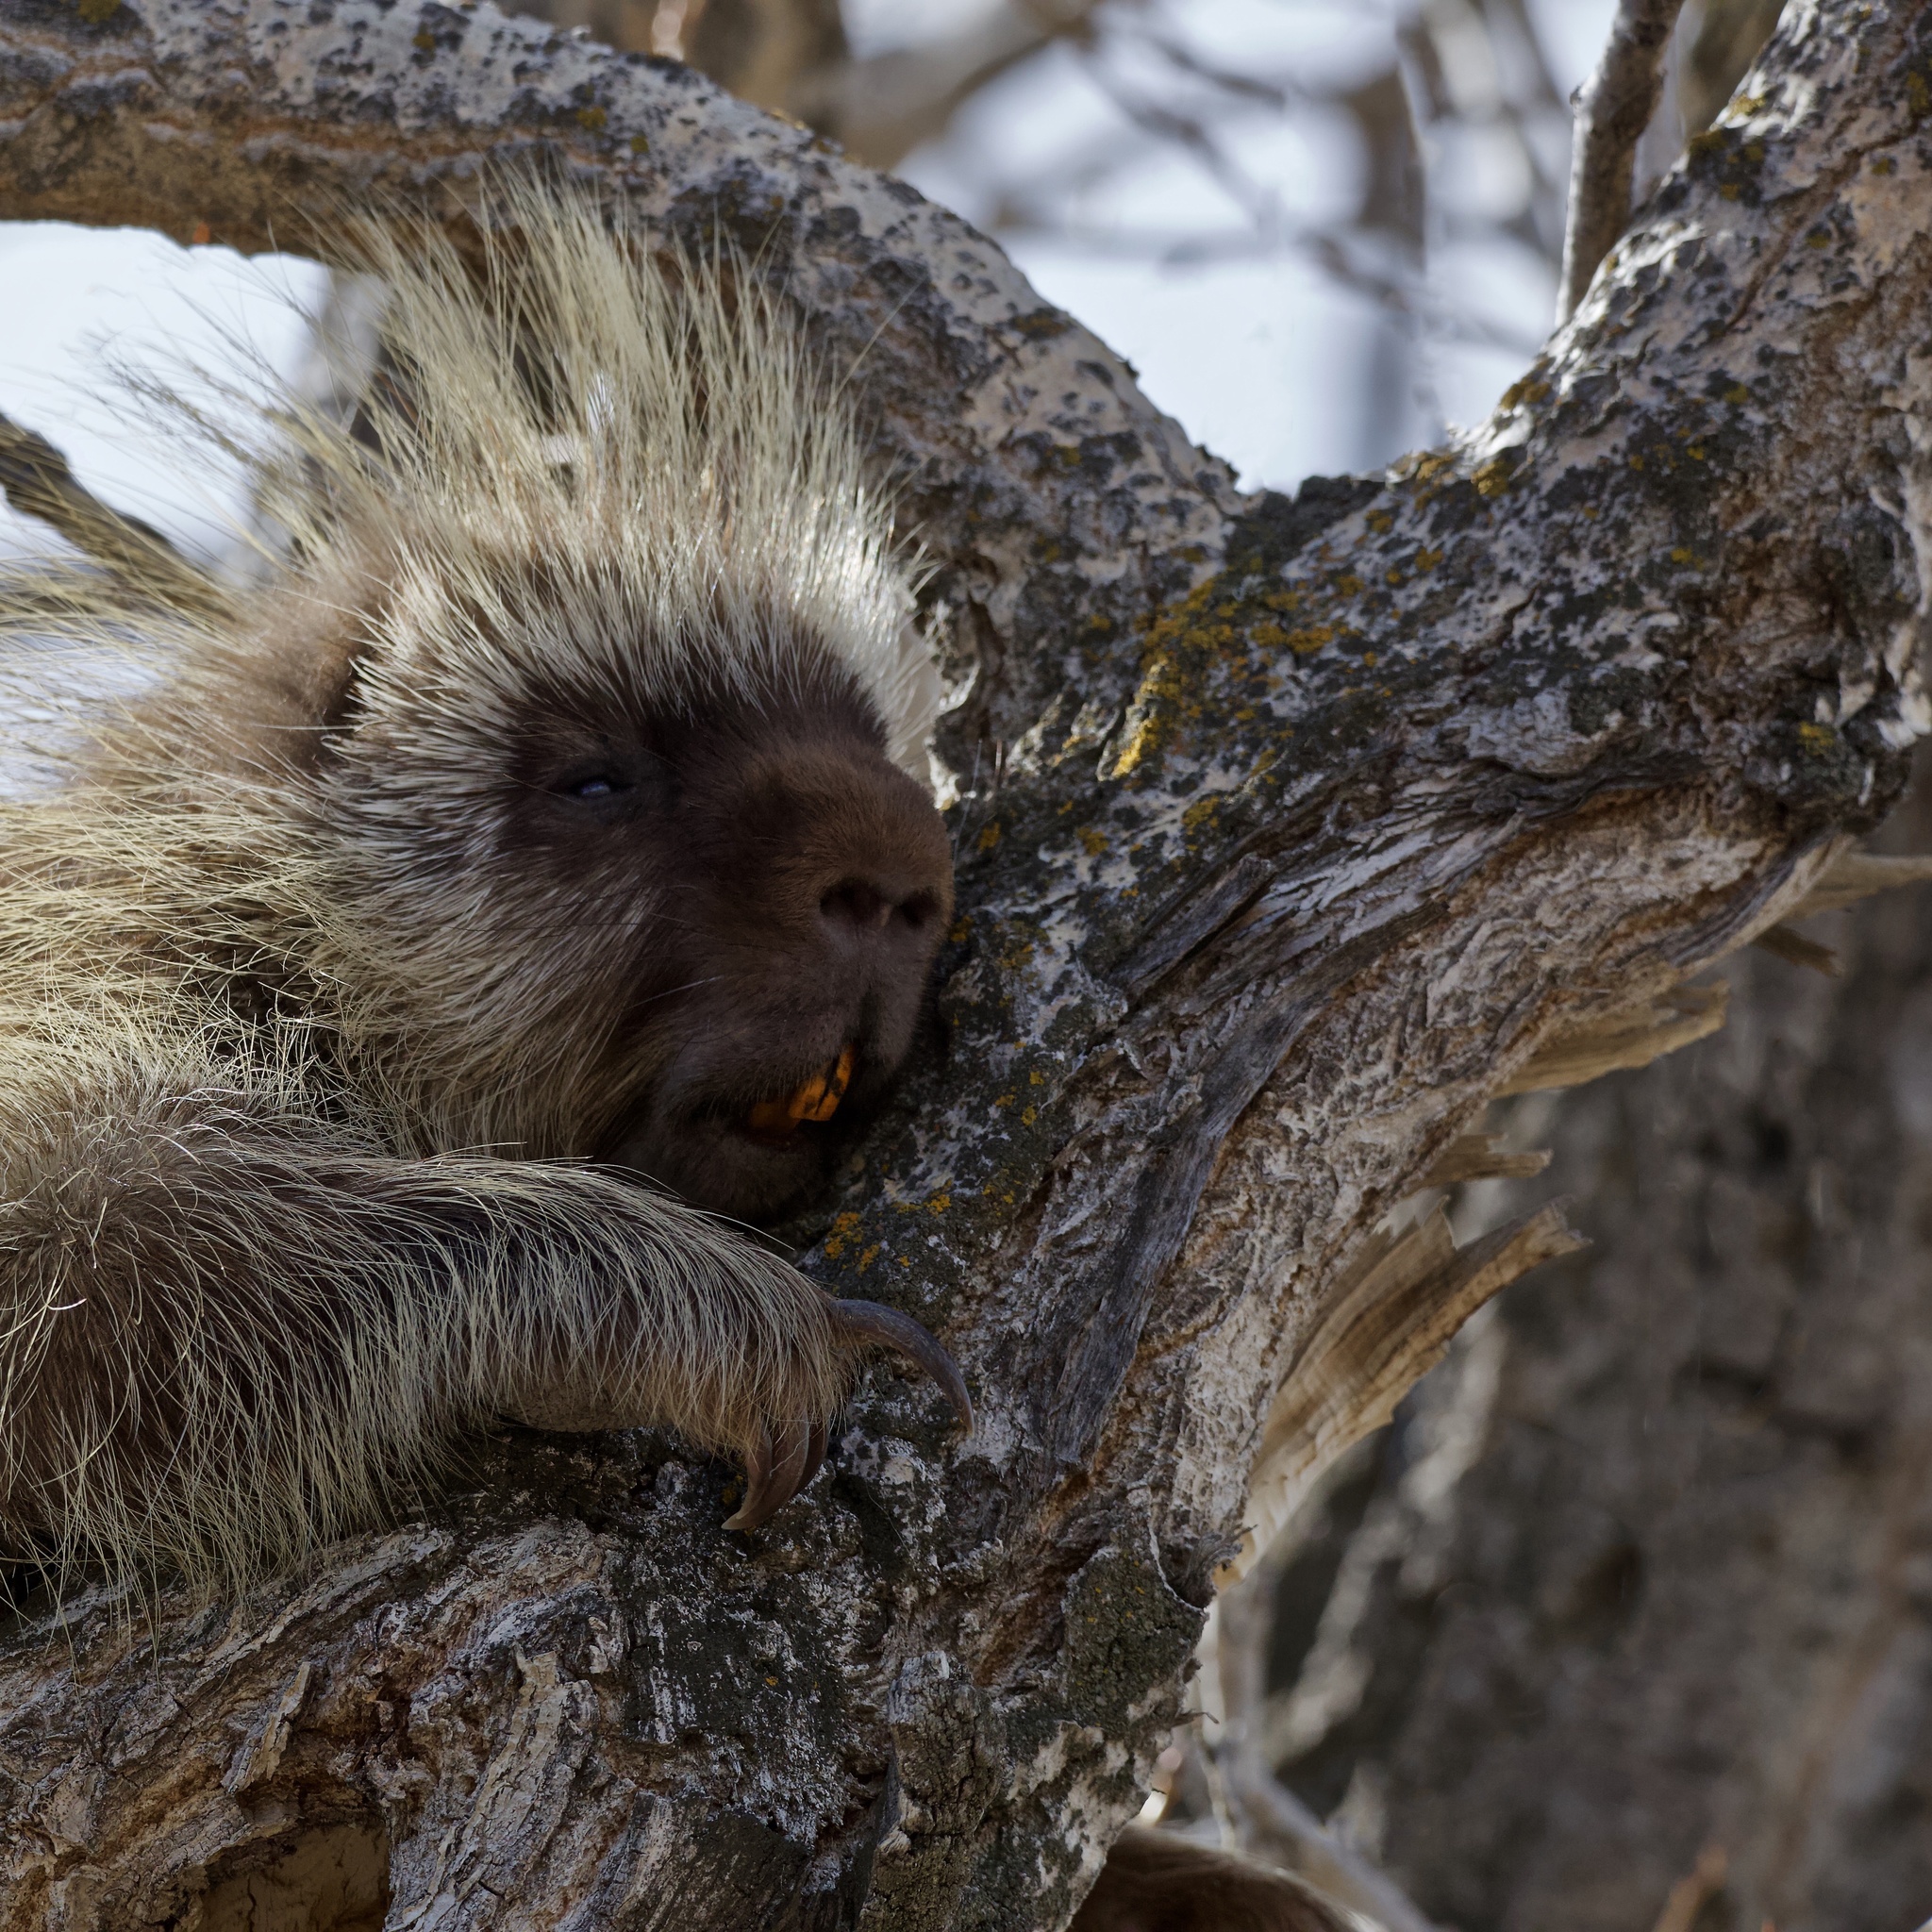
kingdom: Animalia
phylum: Chordata
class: Mammalia
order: Rodentia
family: Erethizontidae
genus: Erethizon
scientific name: Erethizon dorsatus
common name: North american porcupine
